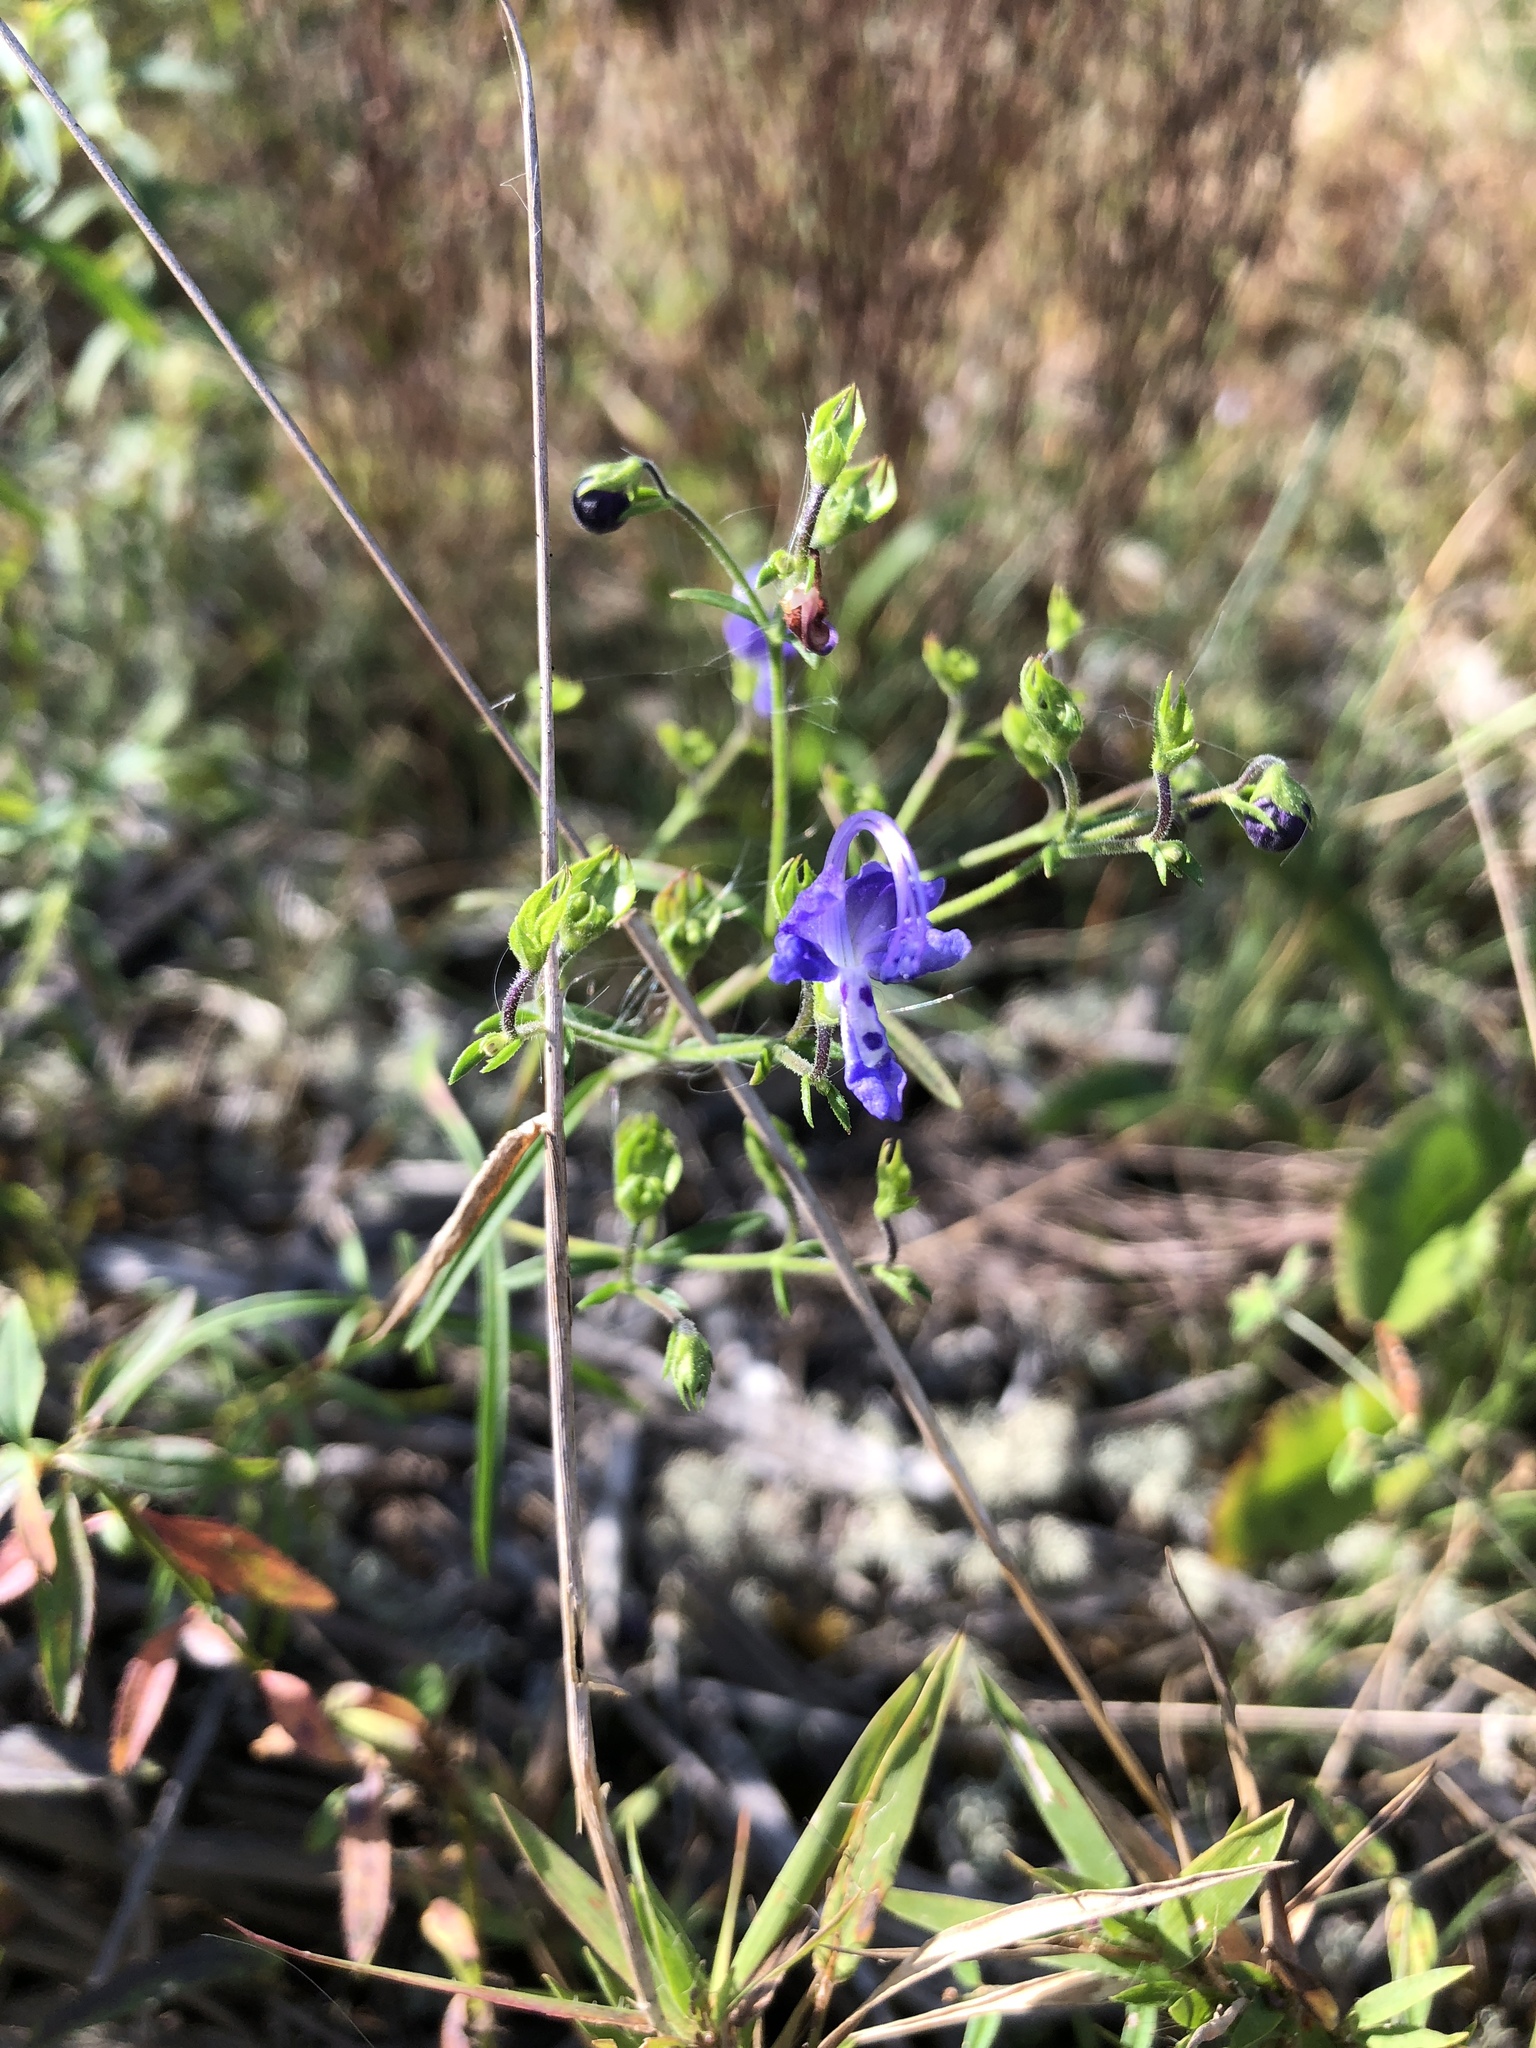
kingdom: Plantae
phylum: Tracheophyta
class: Magnoliopsida
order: Lamiales
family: Lamiaceae
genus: Trichostema
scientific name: Trichostema setaceum
